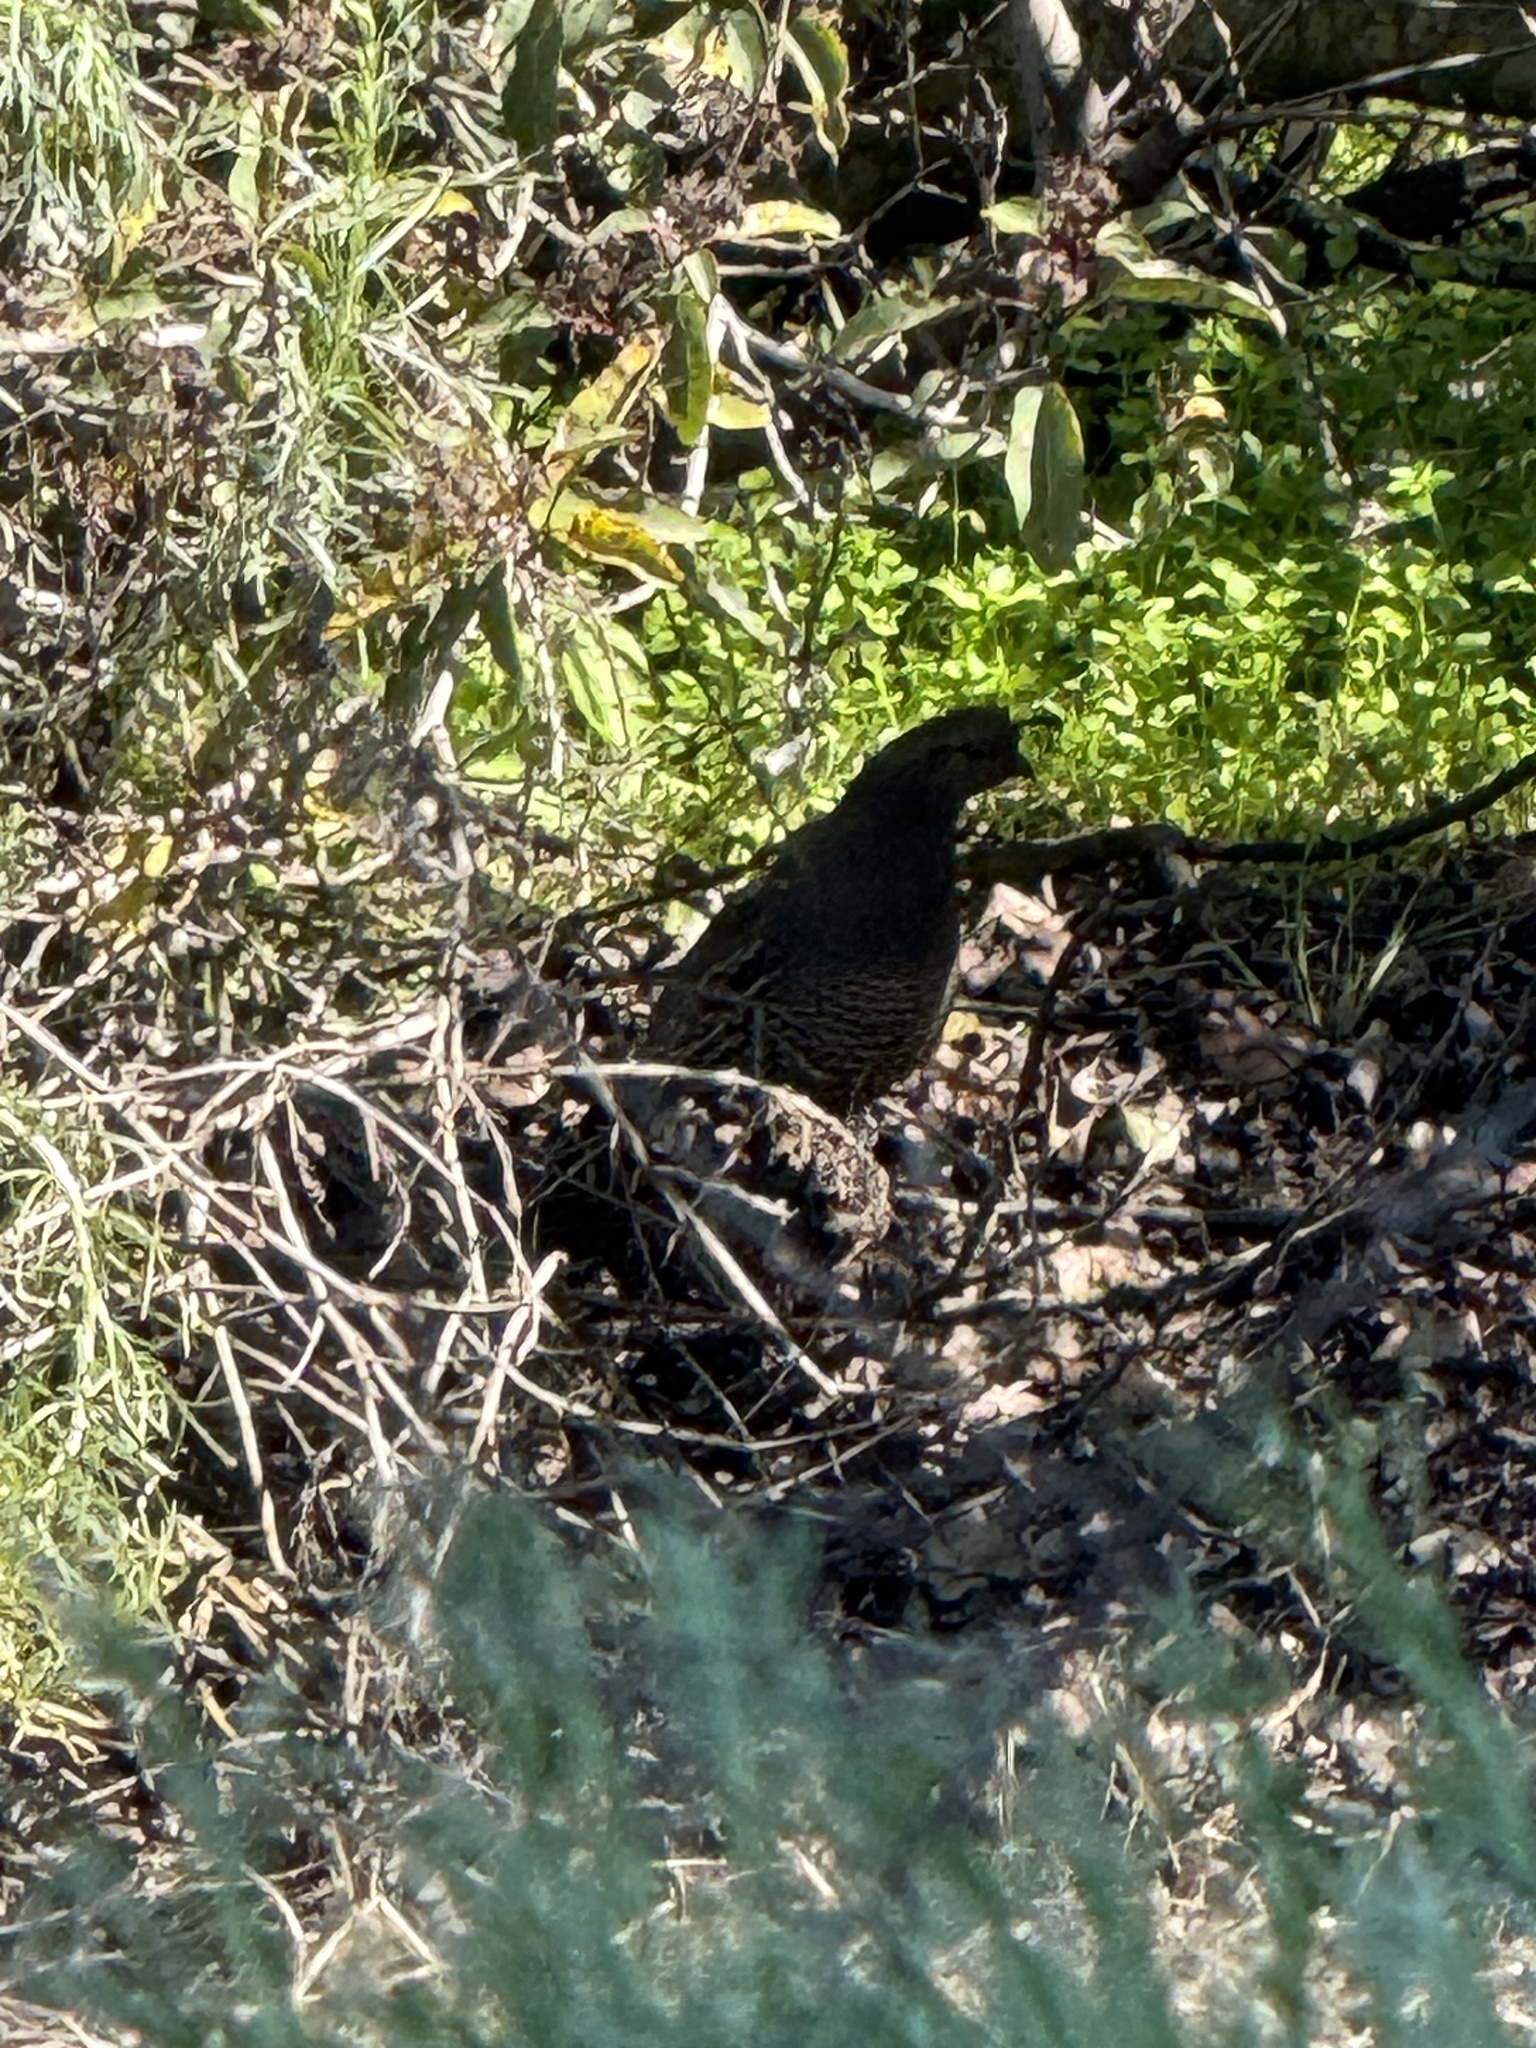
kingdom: Animalia
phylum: Chordata
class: Aves
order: Galliformes
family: Odontophoridae
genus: Callipepla
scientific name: Callipepla californica
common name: California quail
